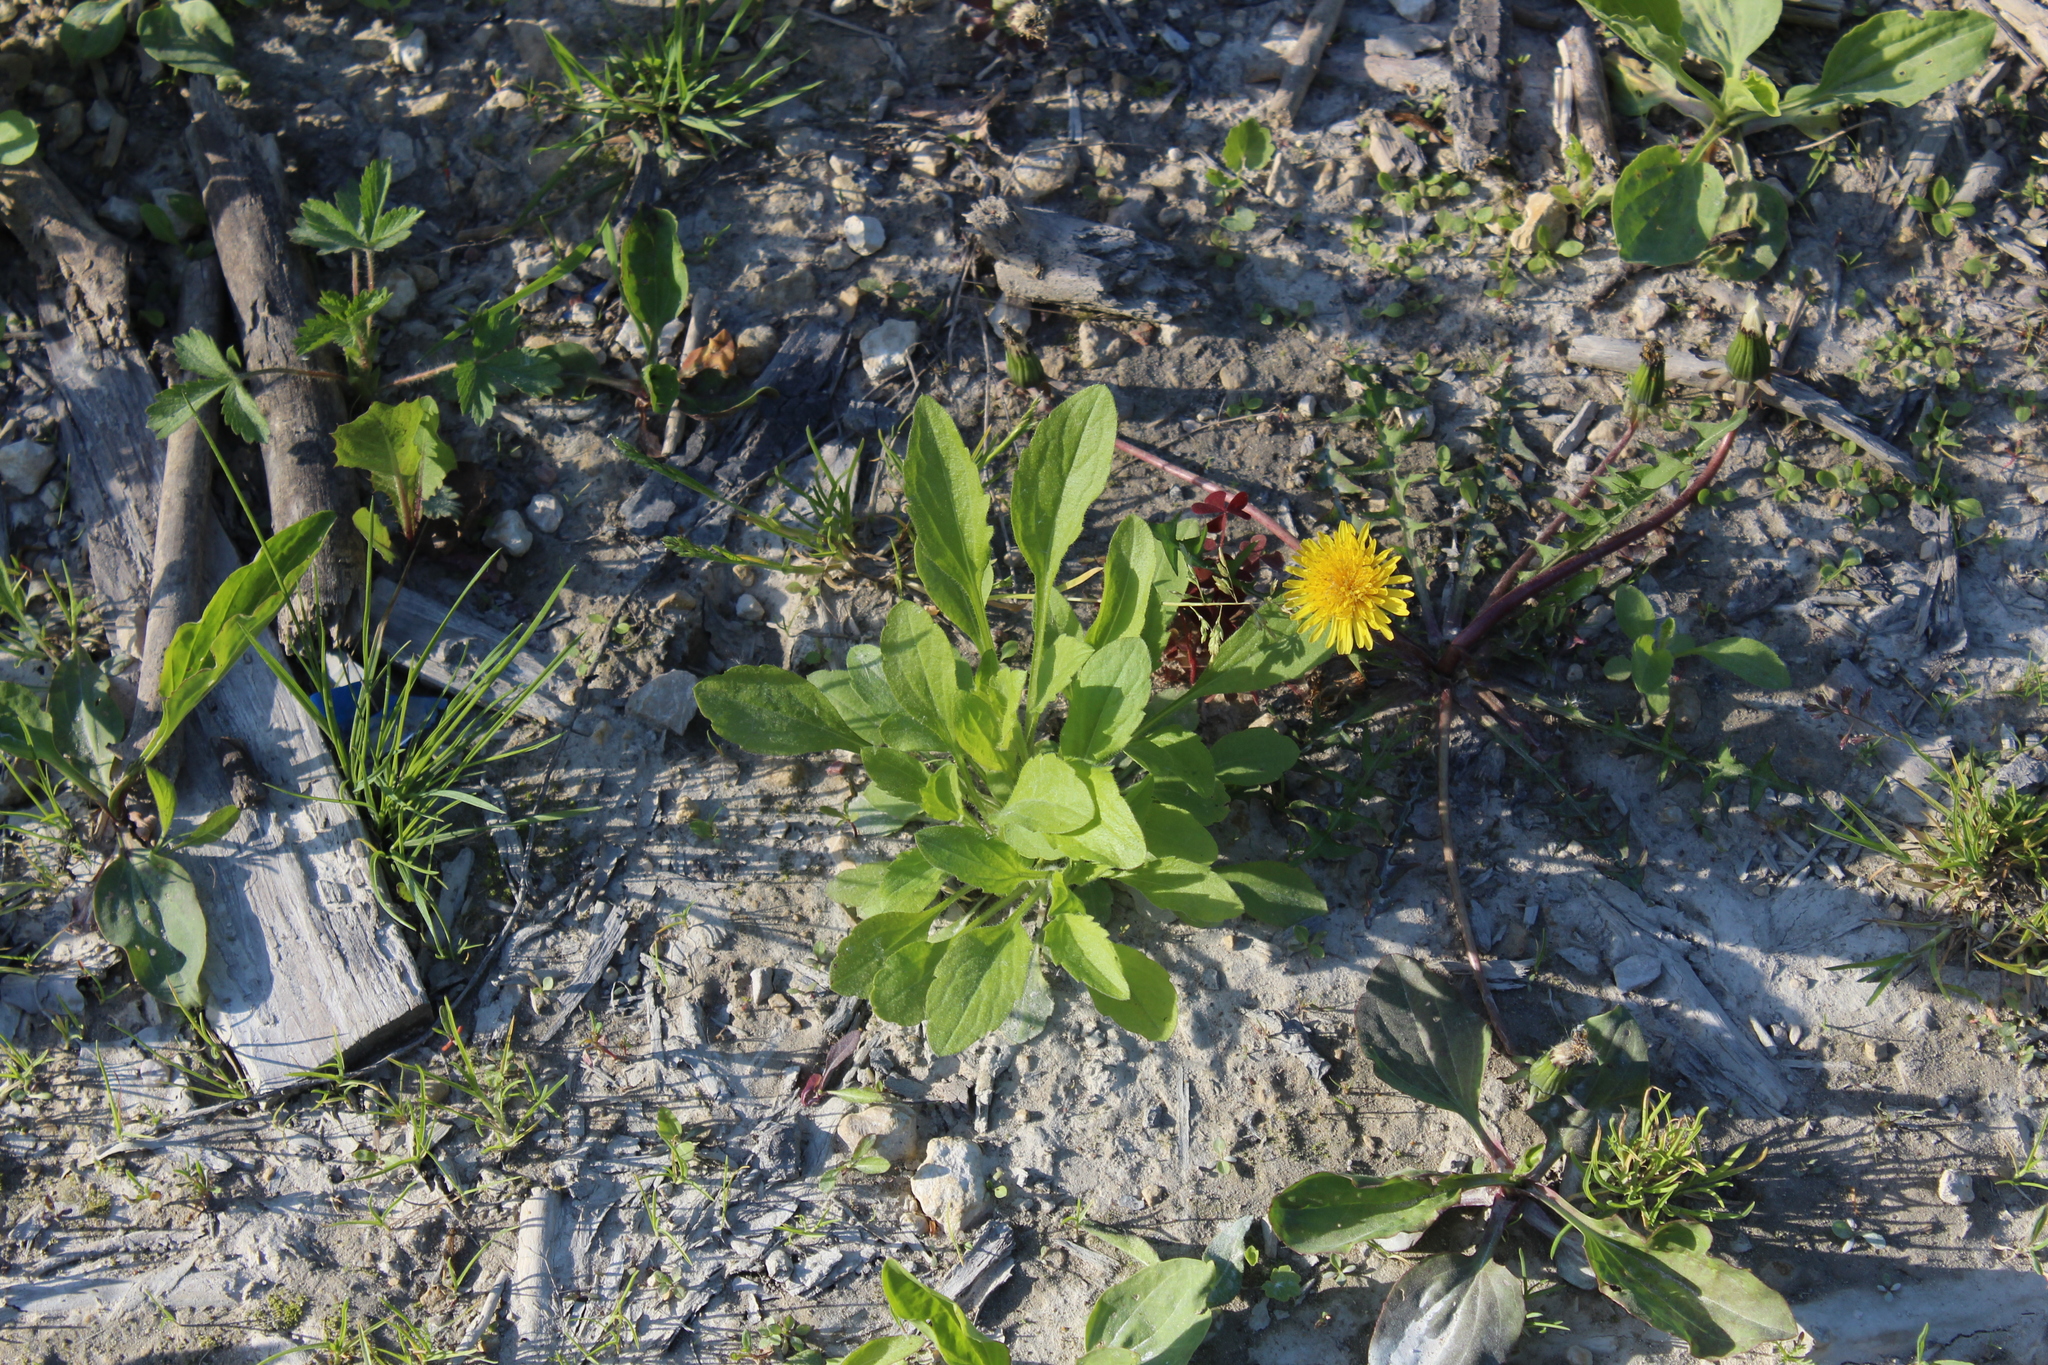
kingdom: Plantae
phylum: Tracheophyta
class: Magnoliopsida
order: Asterales
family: Asteraceae
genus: Erigeron
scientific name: Erigeron annuus
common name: Tall fleabane
